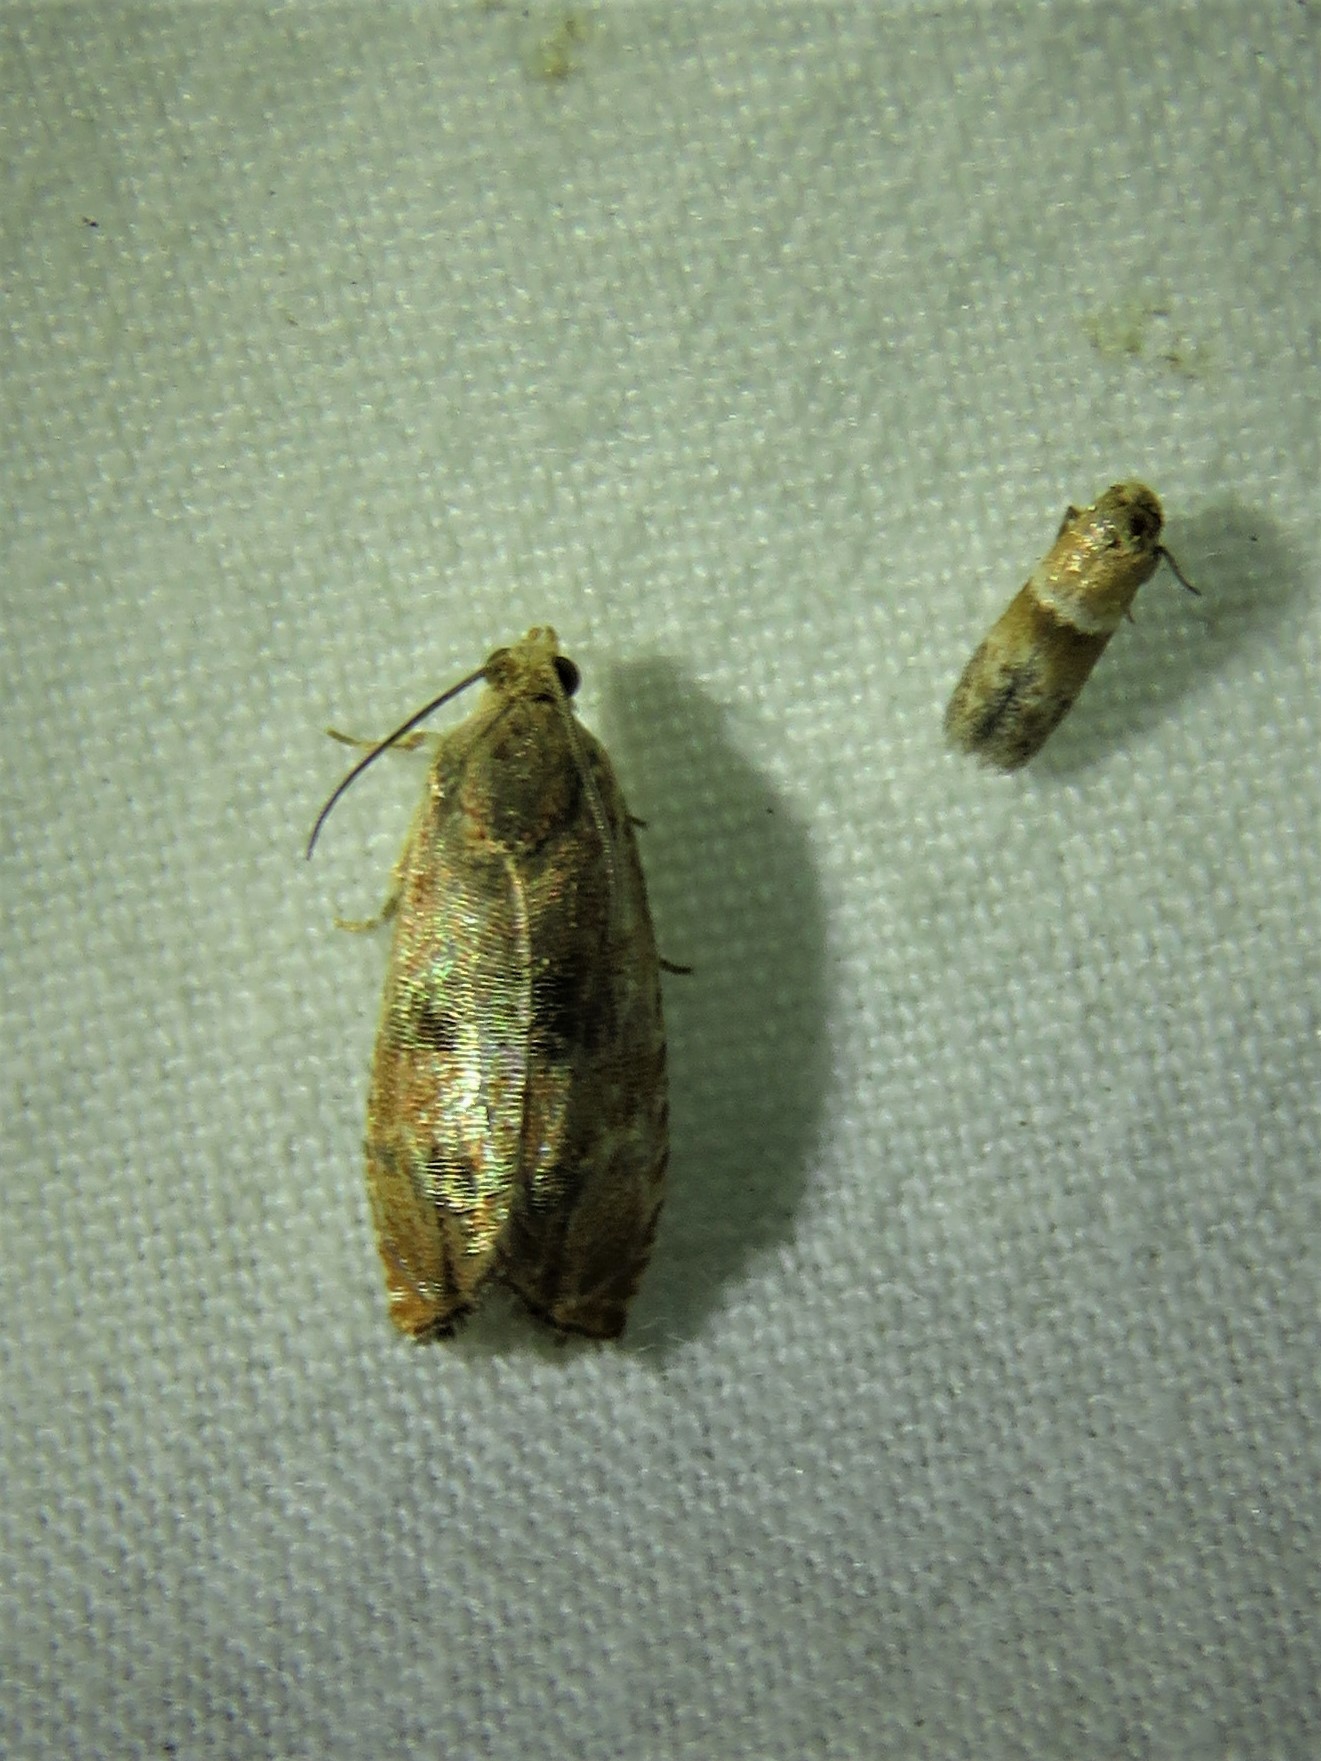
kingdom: Animalia
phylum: Arthropoda
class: Insecta
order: Lepidoptera
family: Tortricidae
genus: Cydia
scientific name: Cydia latiferreana
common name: Filbertworm moth
